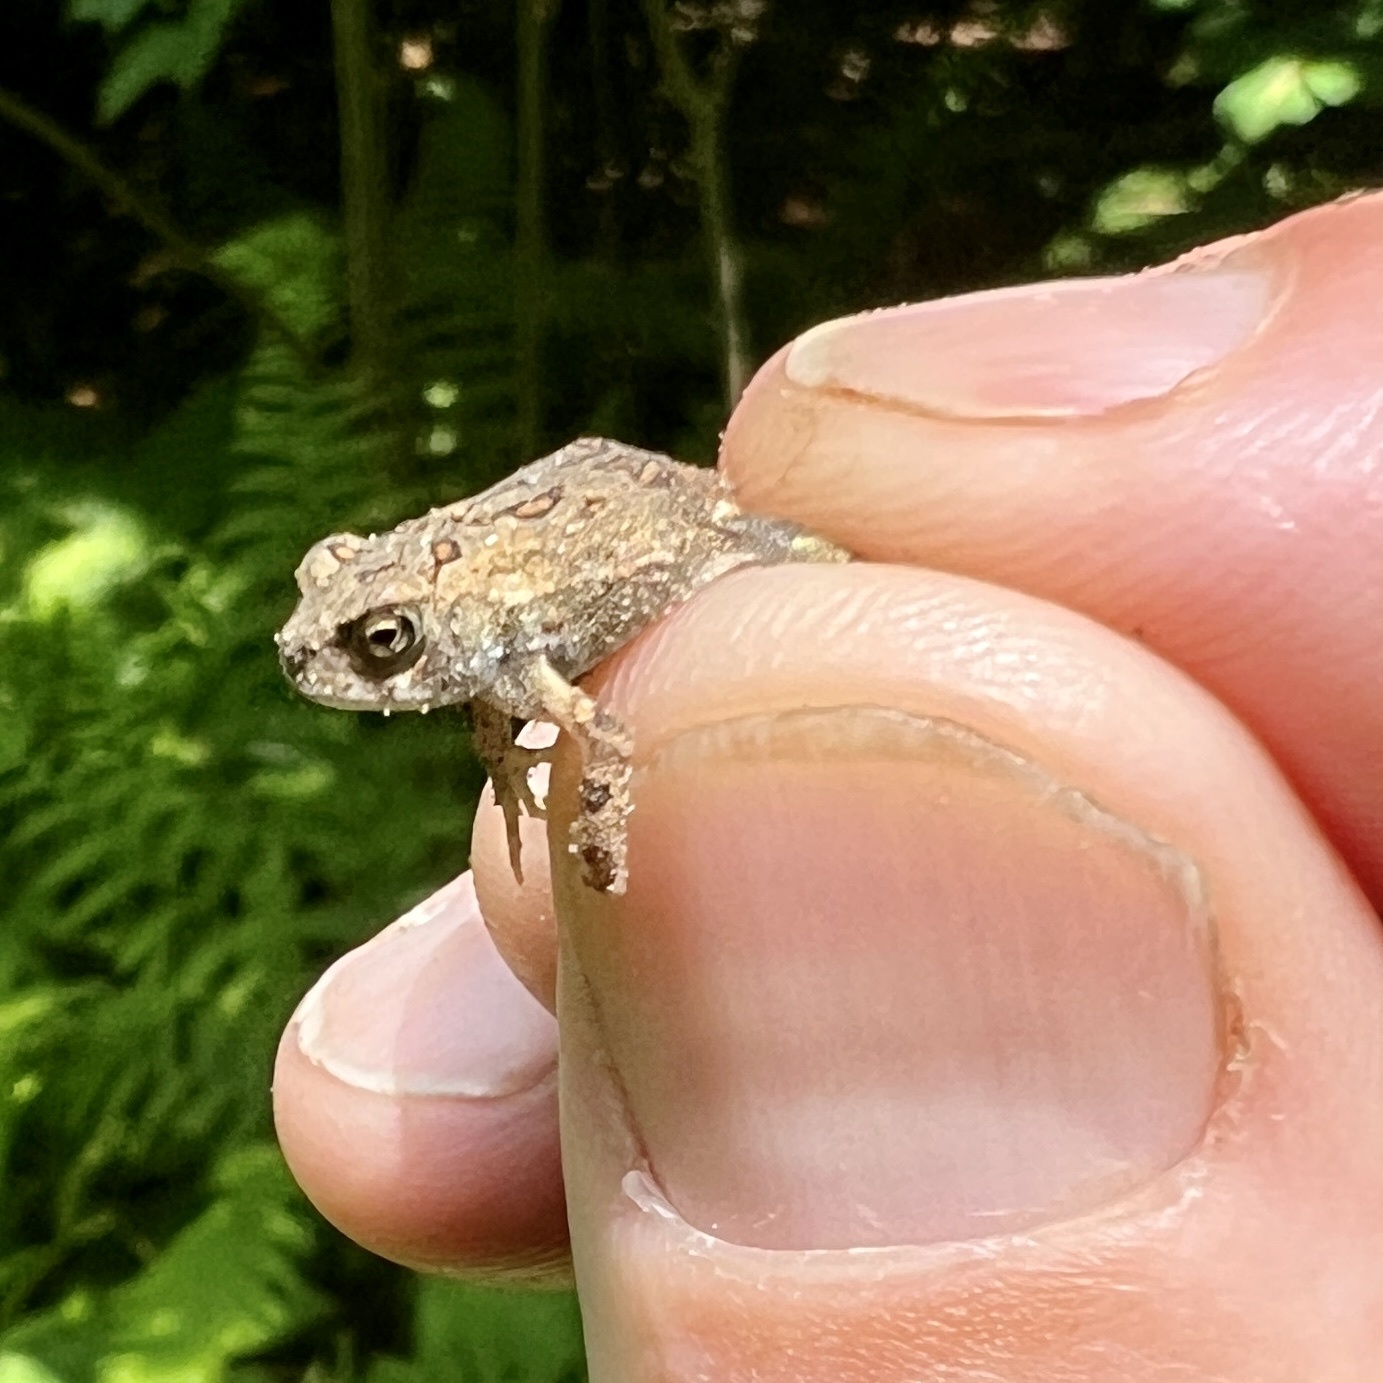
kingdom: Animalia
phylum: Chordata
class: Amphibia
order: Anura
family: Bufonidae
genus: Anaxyrus
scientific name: Anaxyrus americanus
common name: American toad
